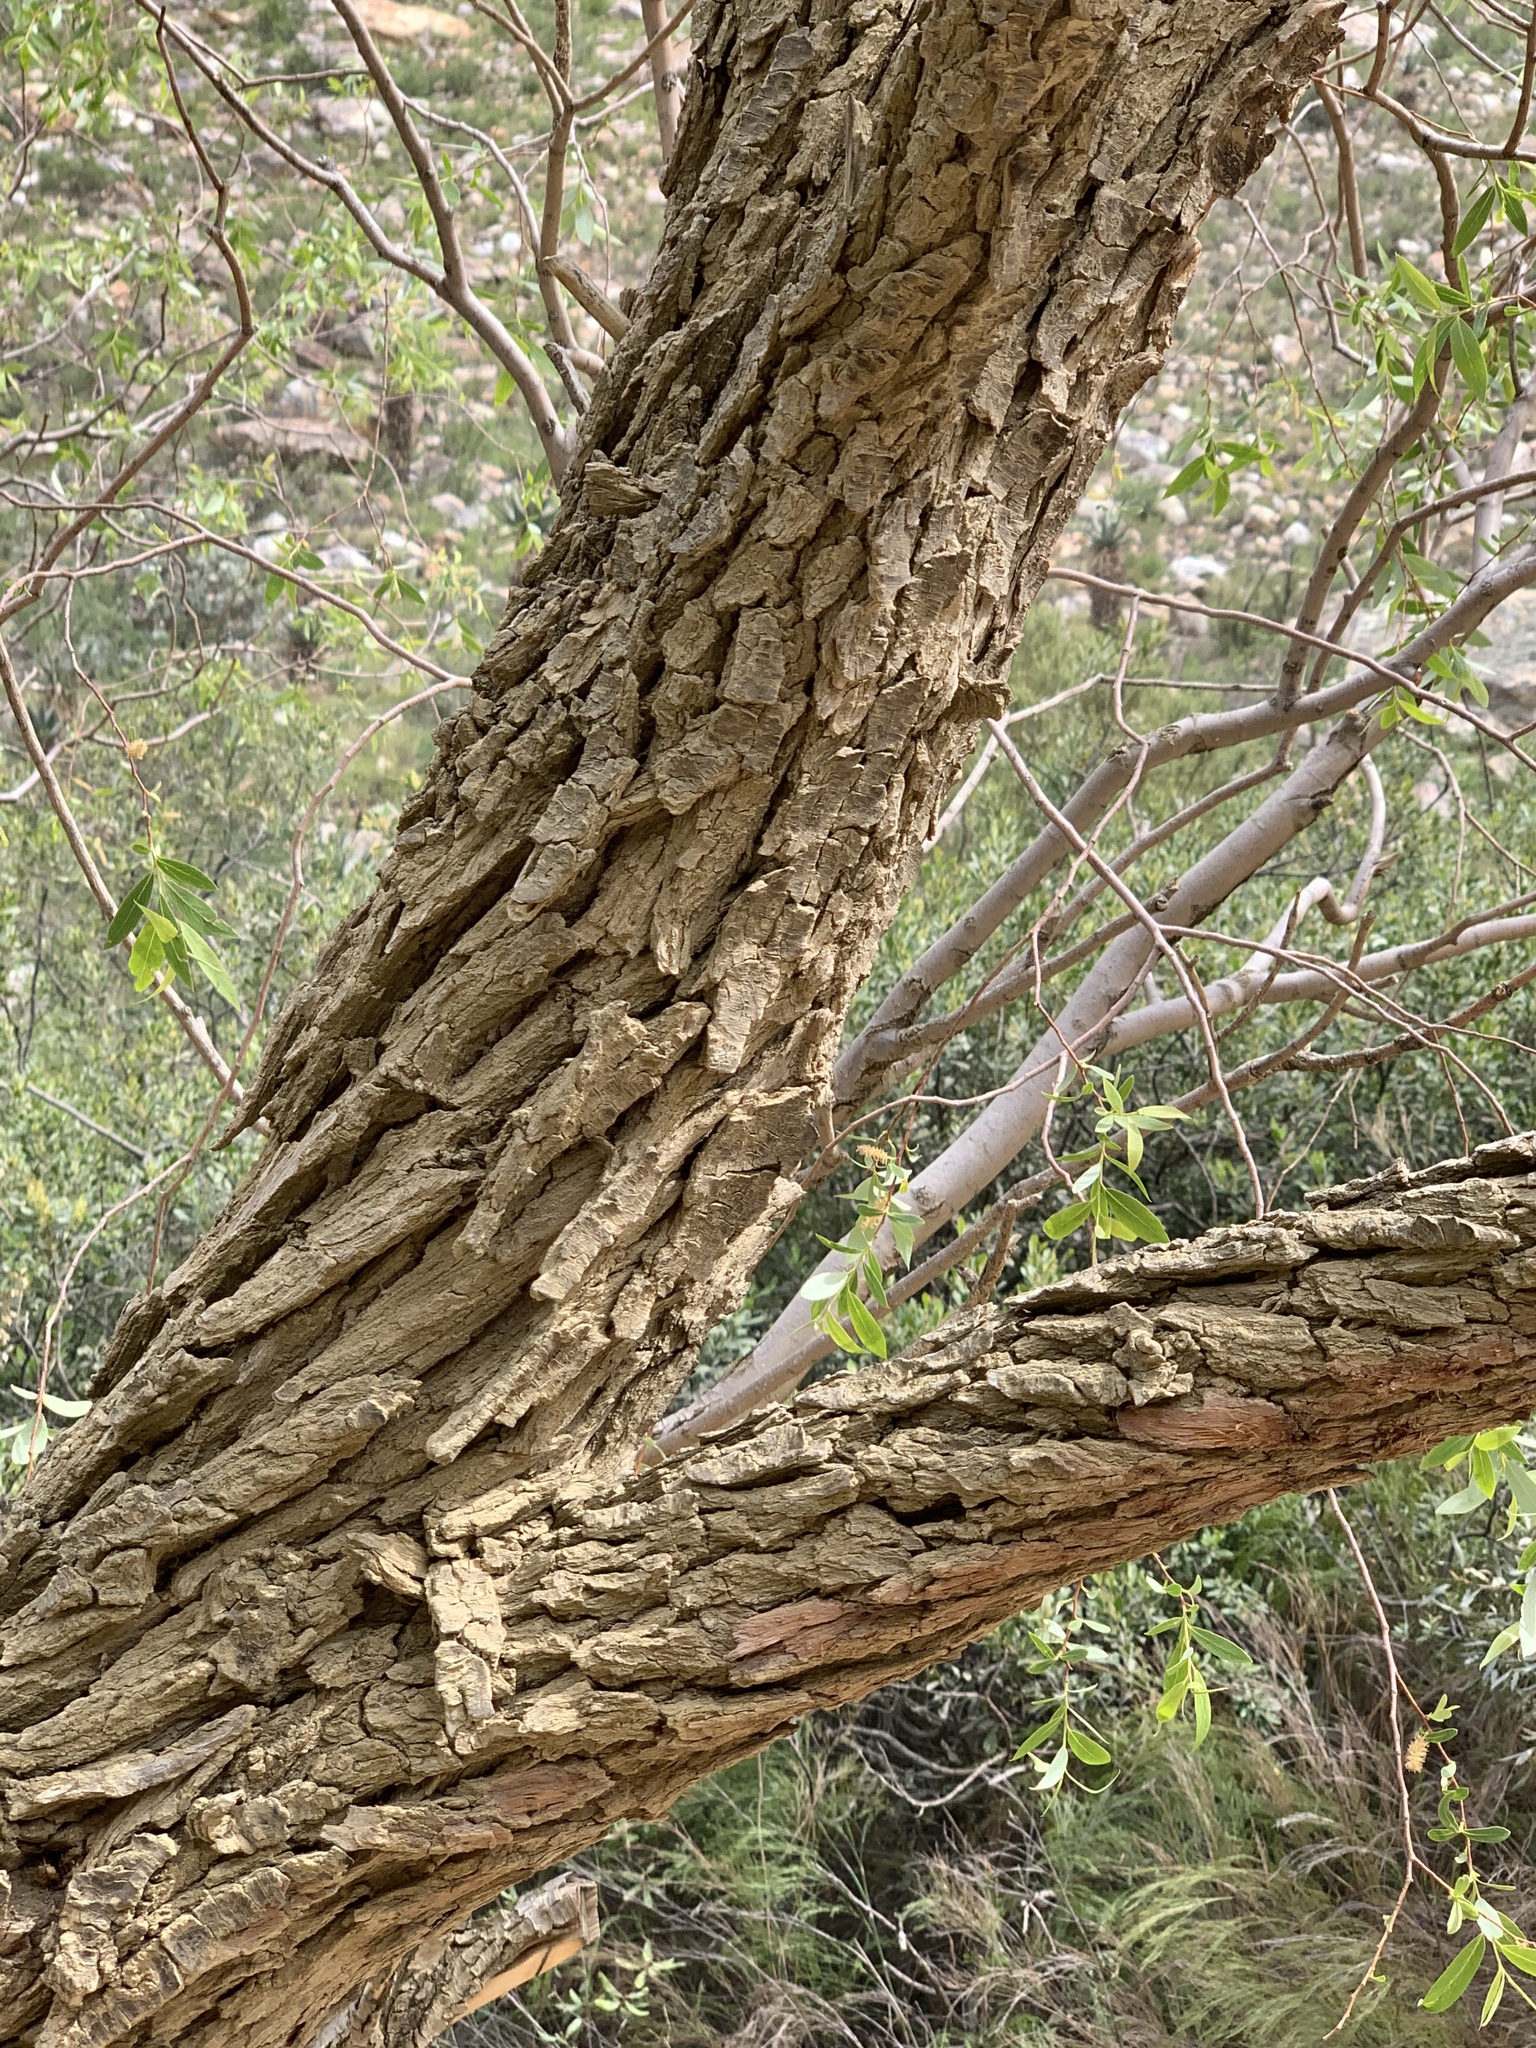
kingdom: Plantae
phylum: Tracheophyta
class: Magnoliopsida
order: Malpighiales
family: Salicaceae
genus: Salix
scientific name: Salix mucronata
